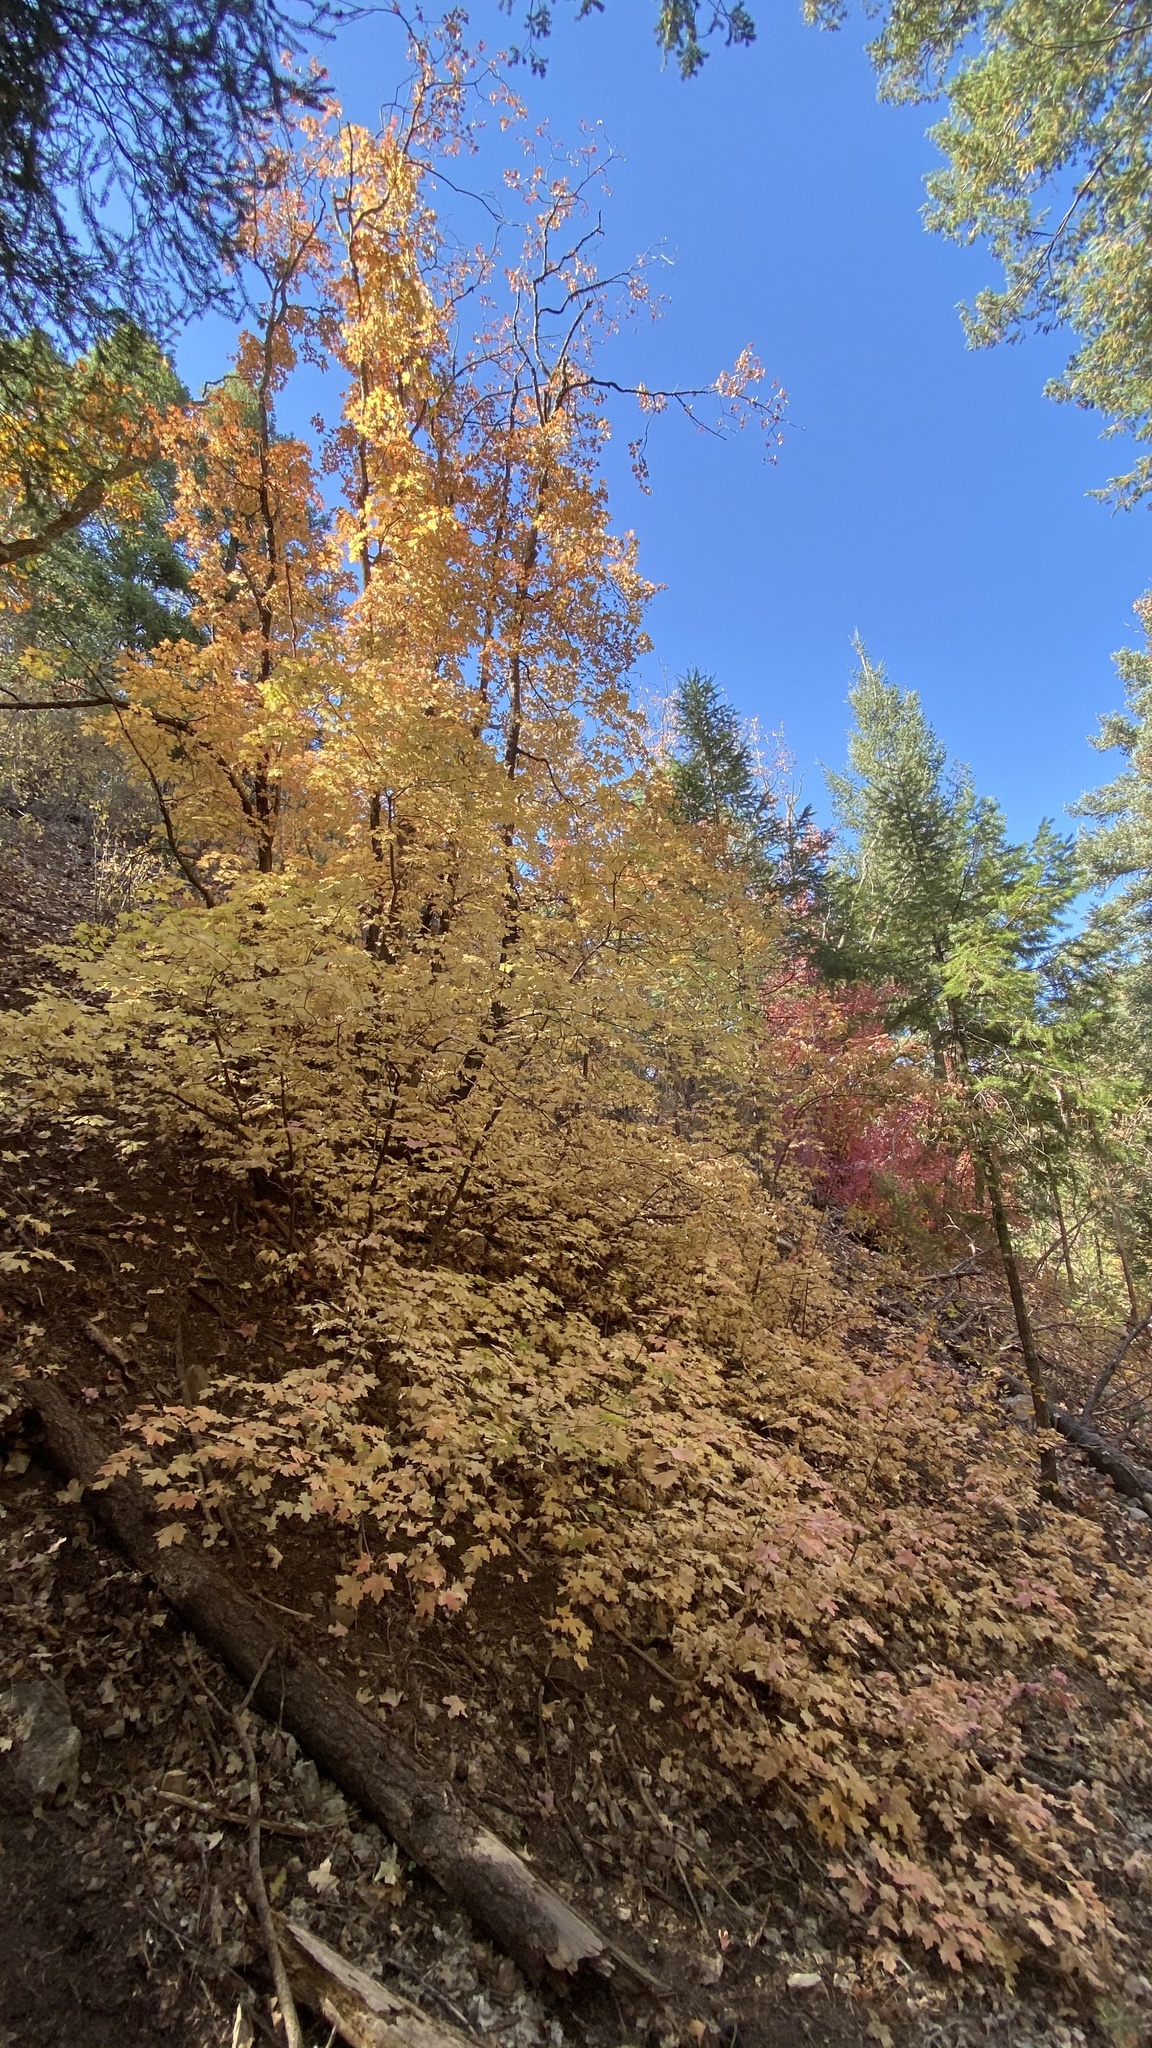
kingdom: Plantae
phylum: Tracheophyta
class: Magnoliopsida
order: Sapindales
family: Sapindaceae
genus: Acer
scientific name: Acer grandidentatum
